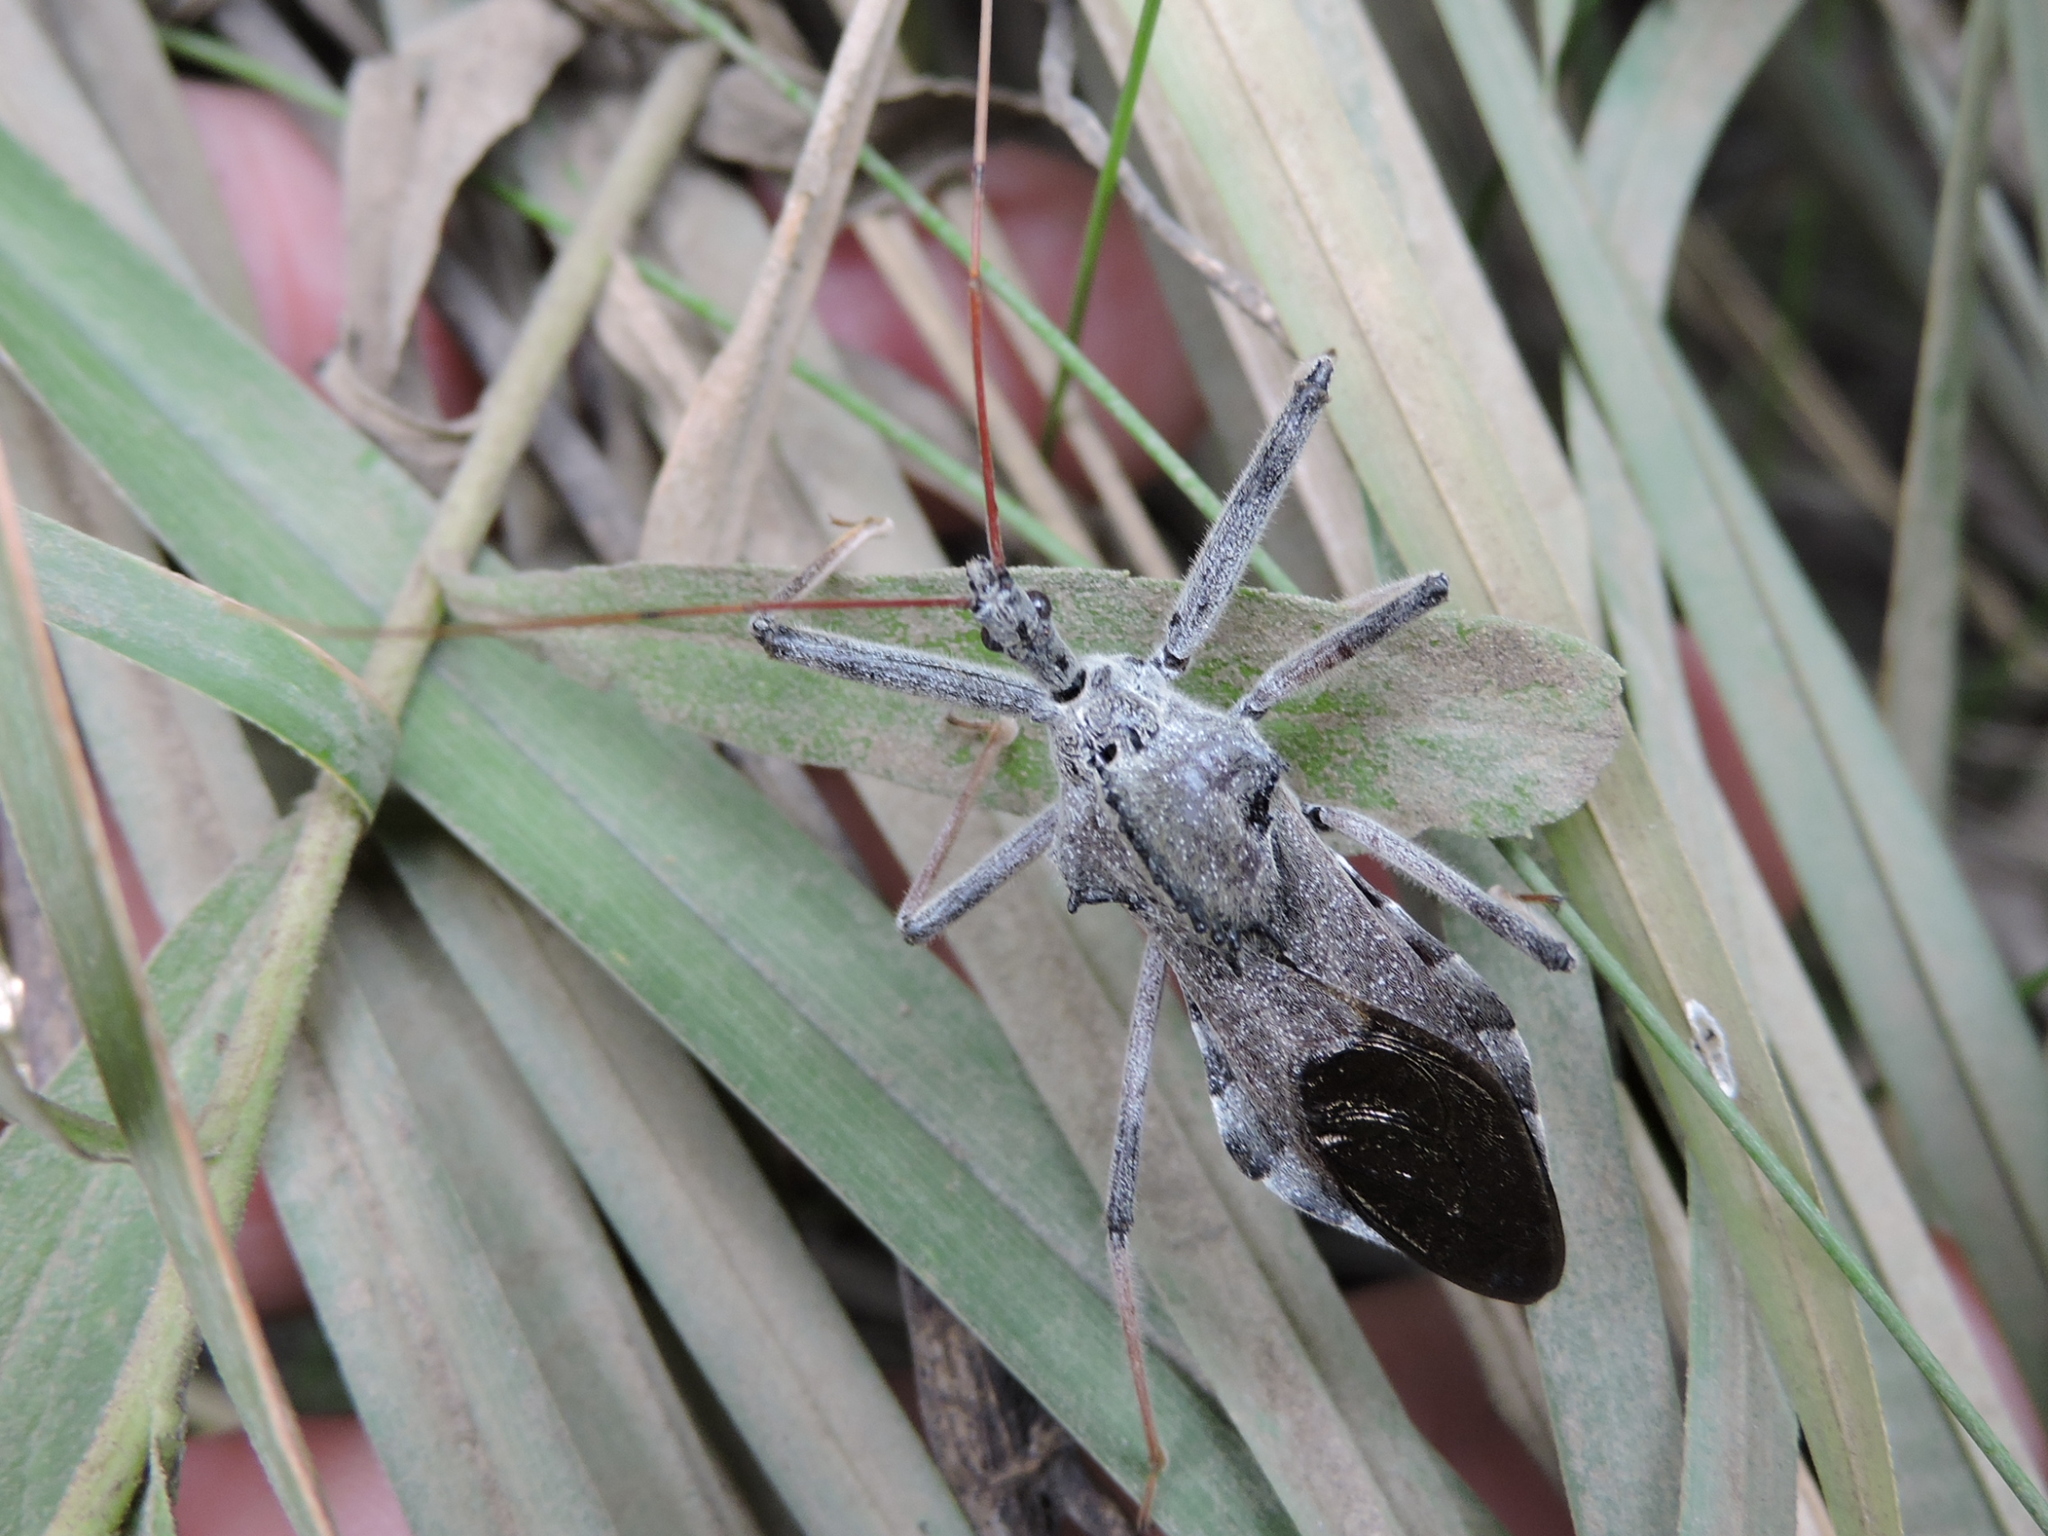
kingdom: Animalia
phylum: Arthropoda
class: Insecta
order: Hemiptera
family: Reduviidae
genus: Arilus
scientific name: Arilus cristatus
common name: North american wheel bug
